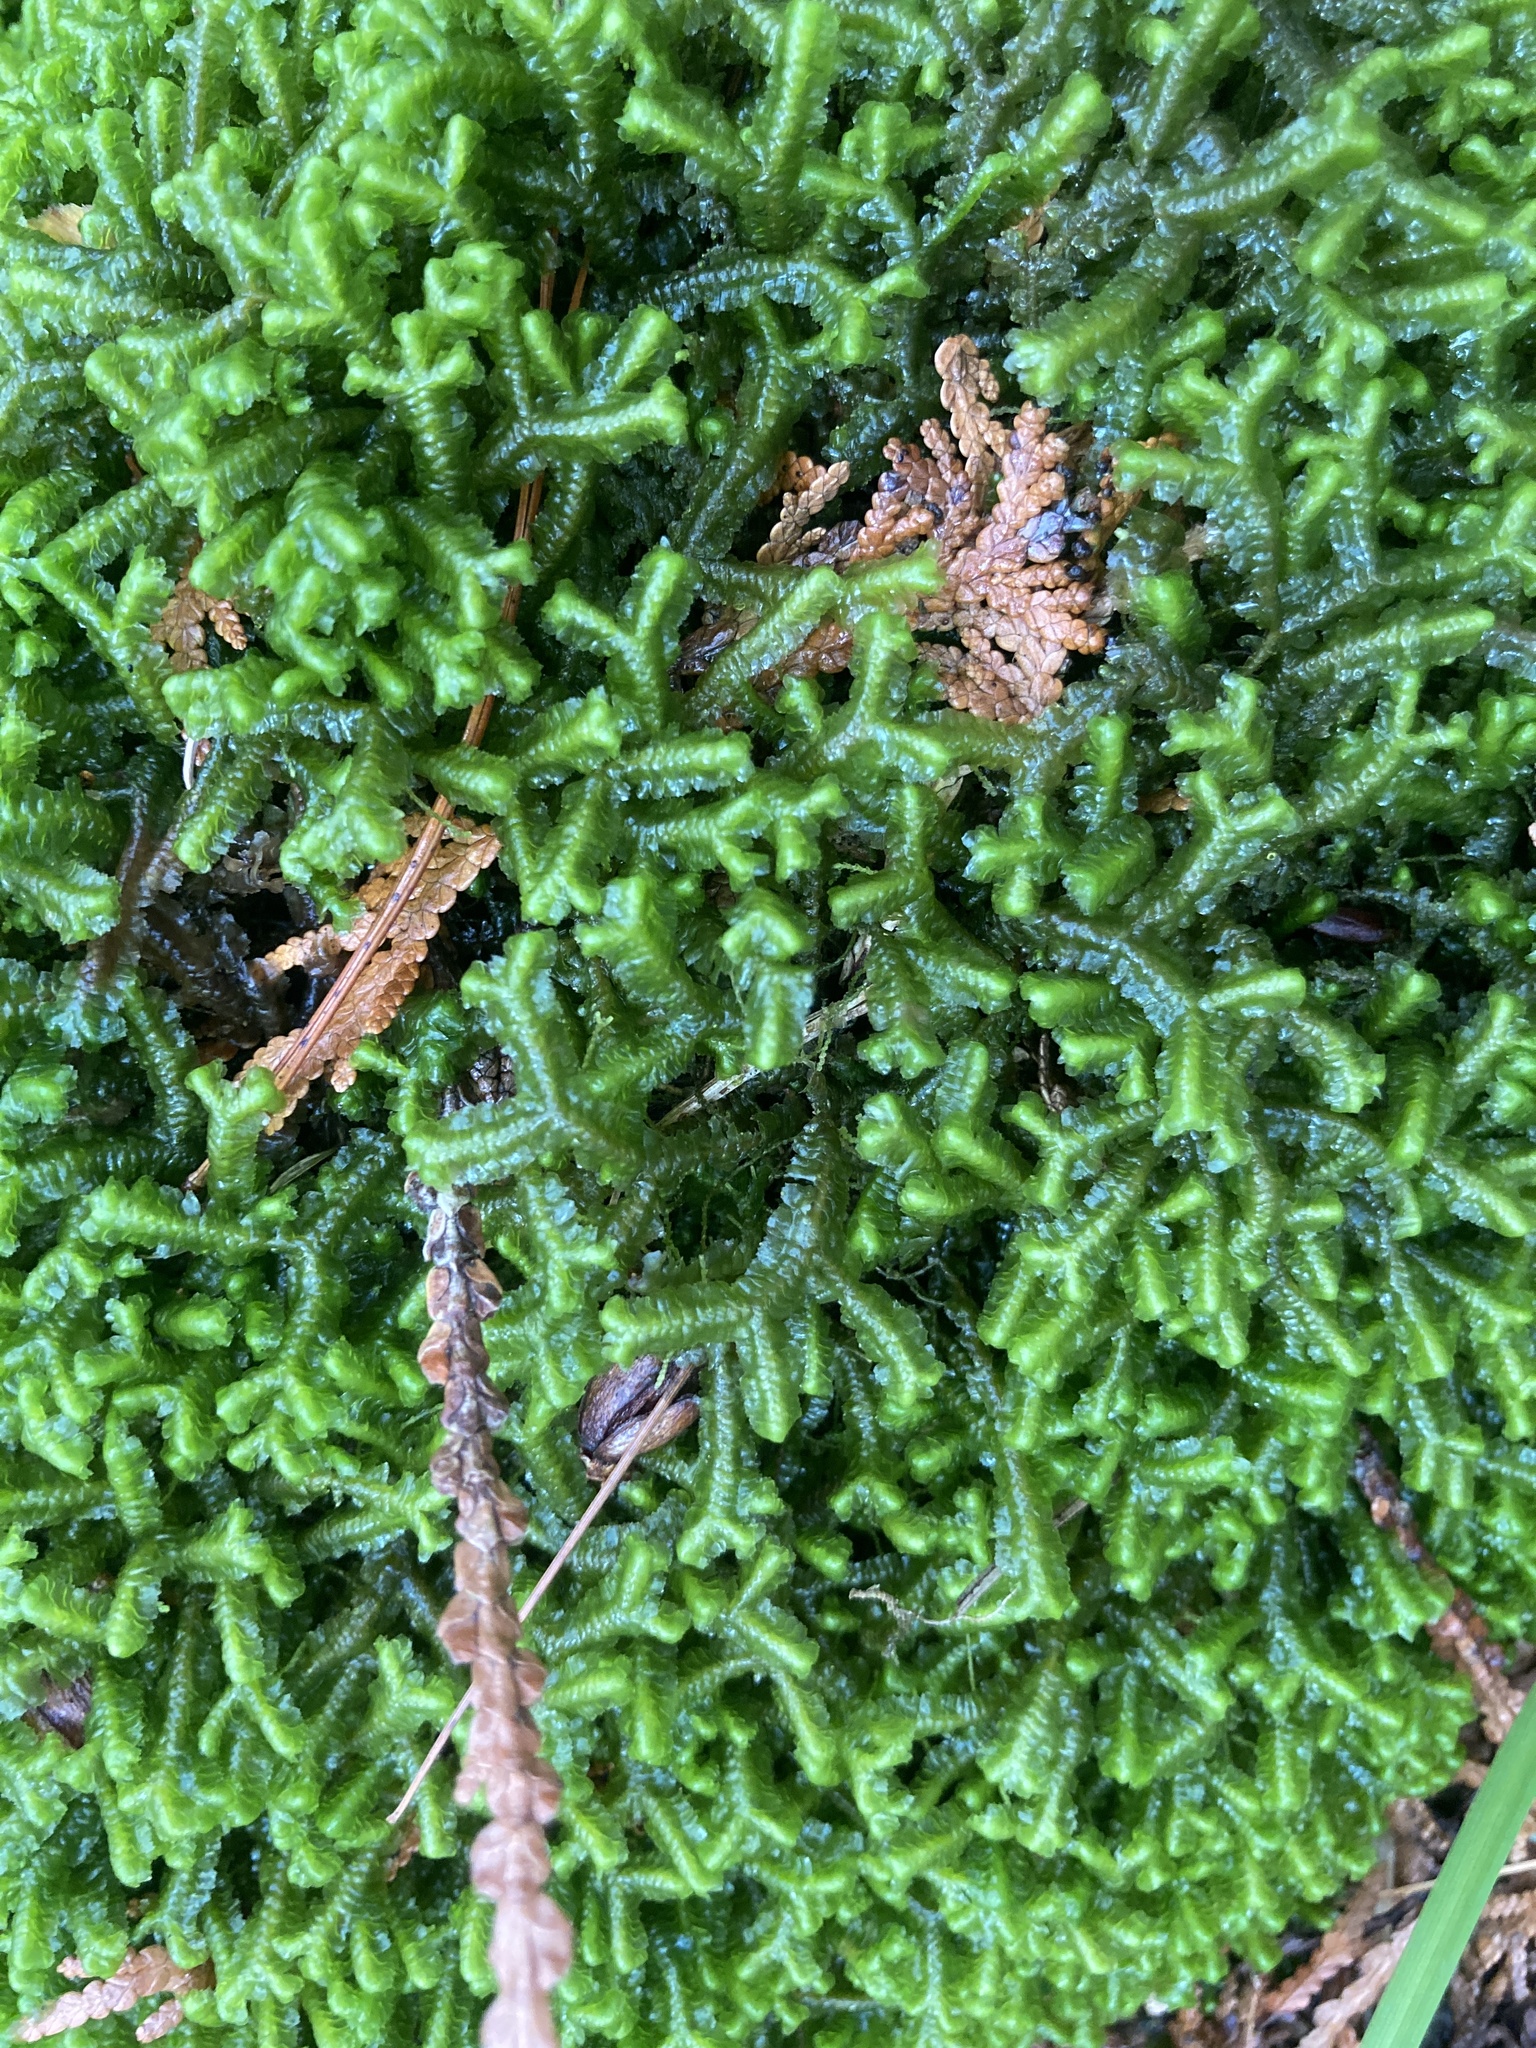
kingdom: Plantae
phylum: Marchantiophyta
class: Jungermanniopsida
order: Jungermanniales
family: Lepidoziaceae
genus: Bazzania
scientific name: Bazzania trilobata
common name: Three-lobed whipwort
